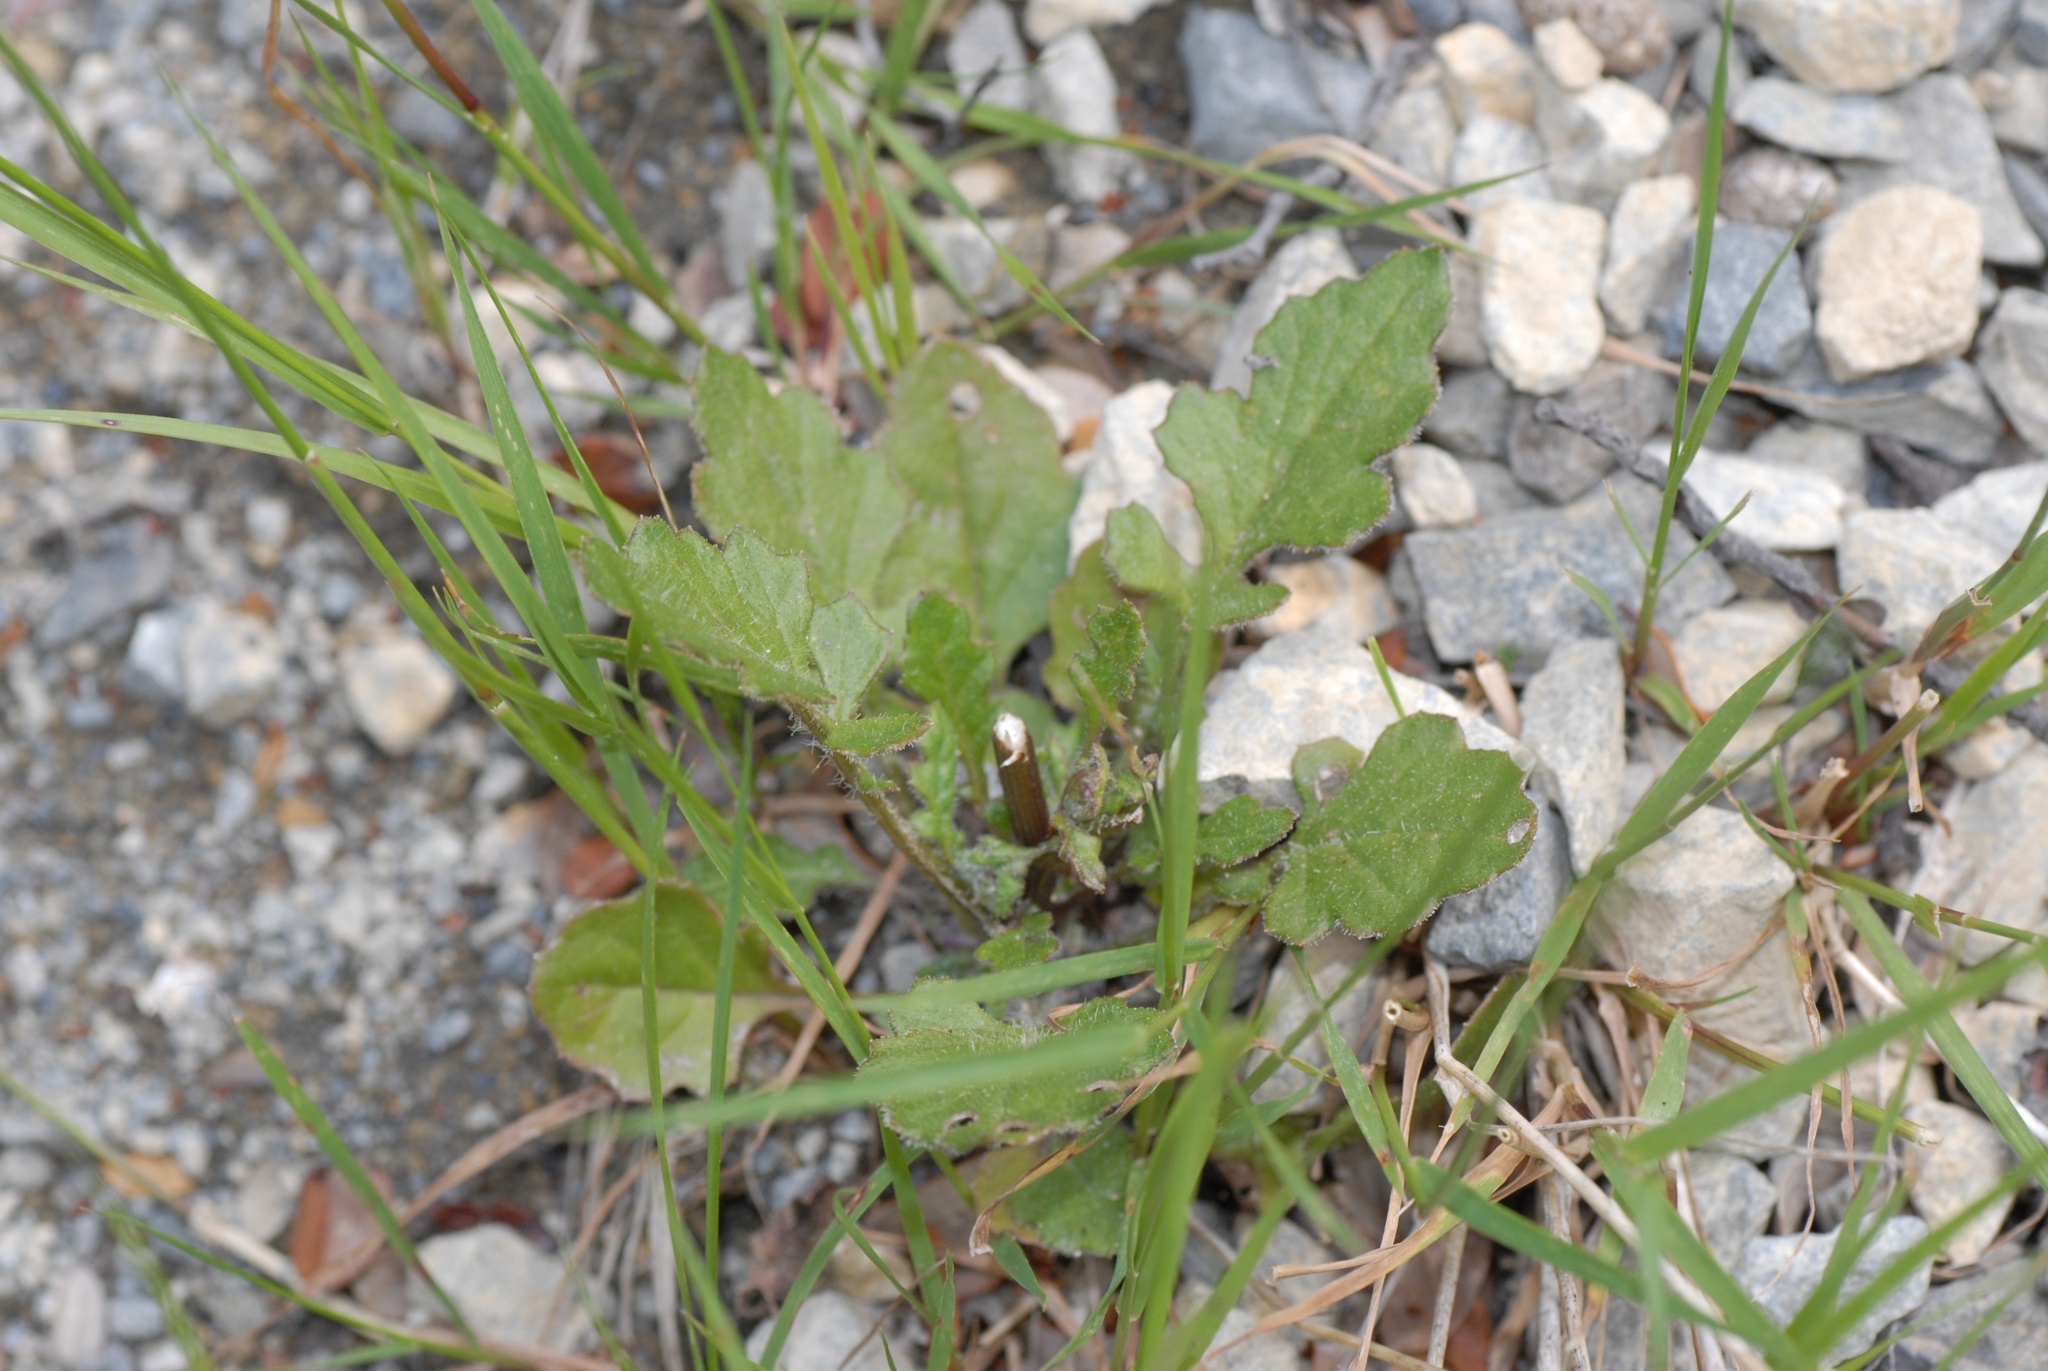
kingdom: Plantae
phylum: Tracheophyta
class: Magnoliopsida
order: Asterales
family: Asteraceae
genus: Senecio
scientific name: Senecio wairauensis
